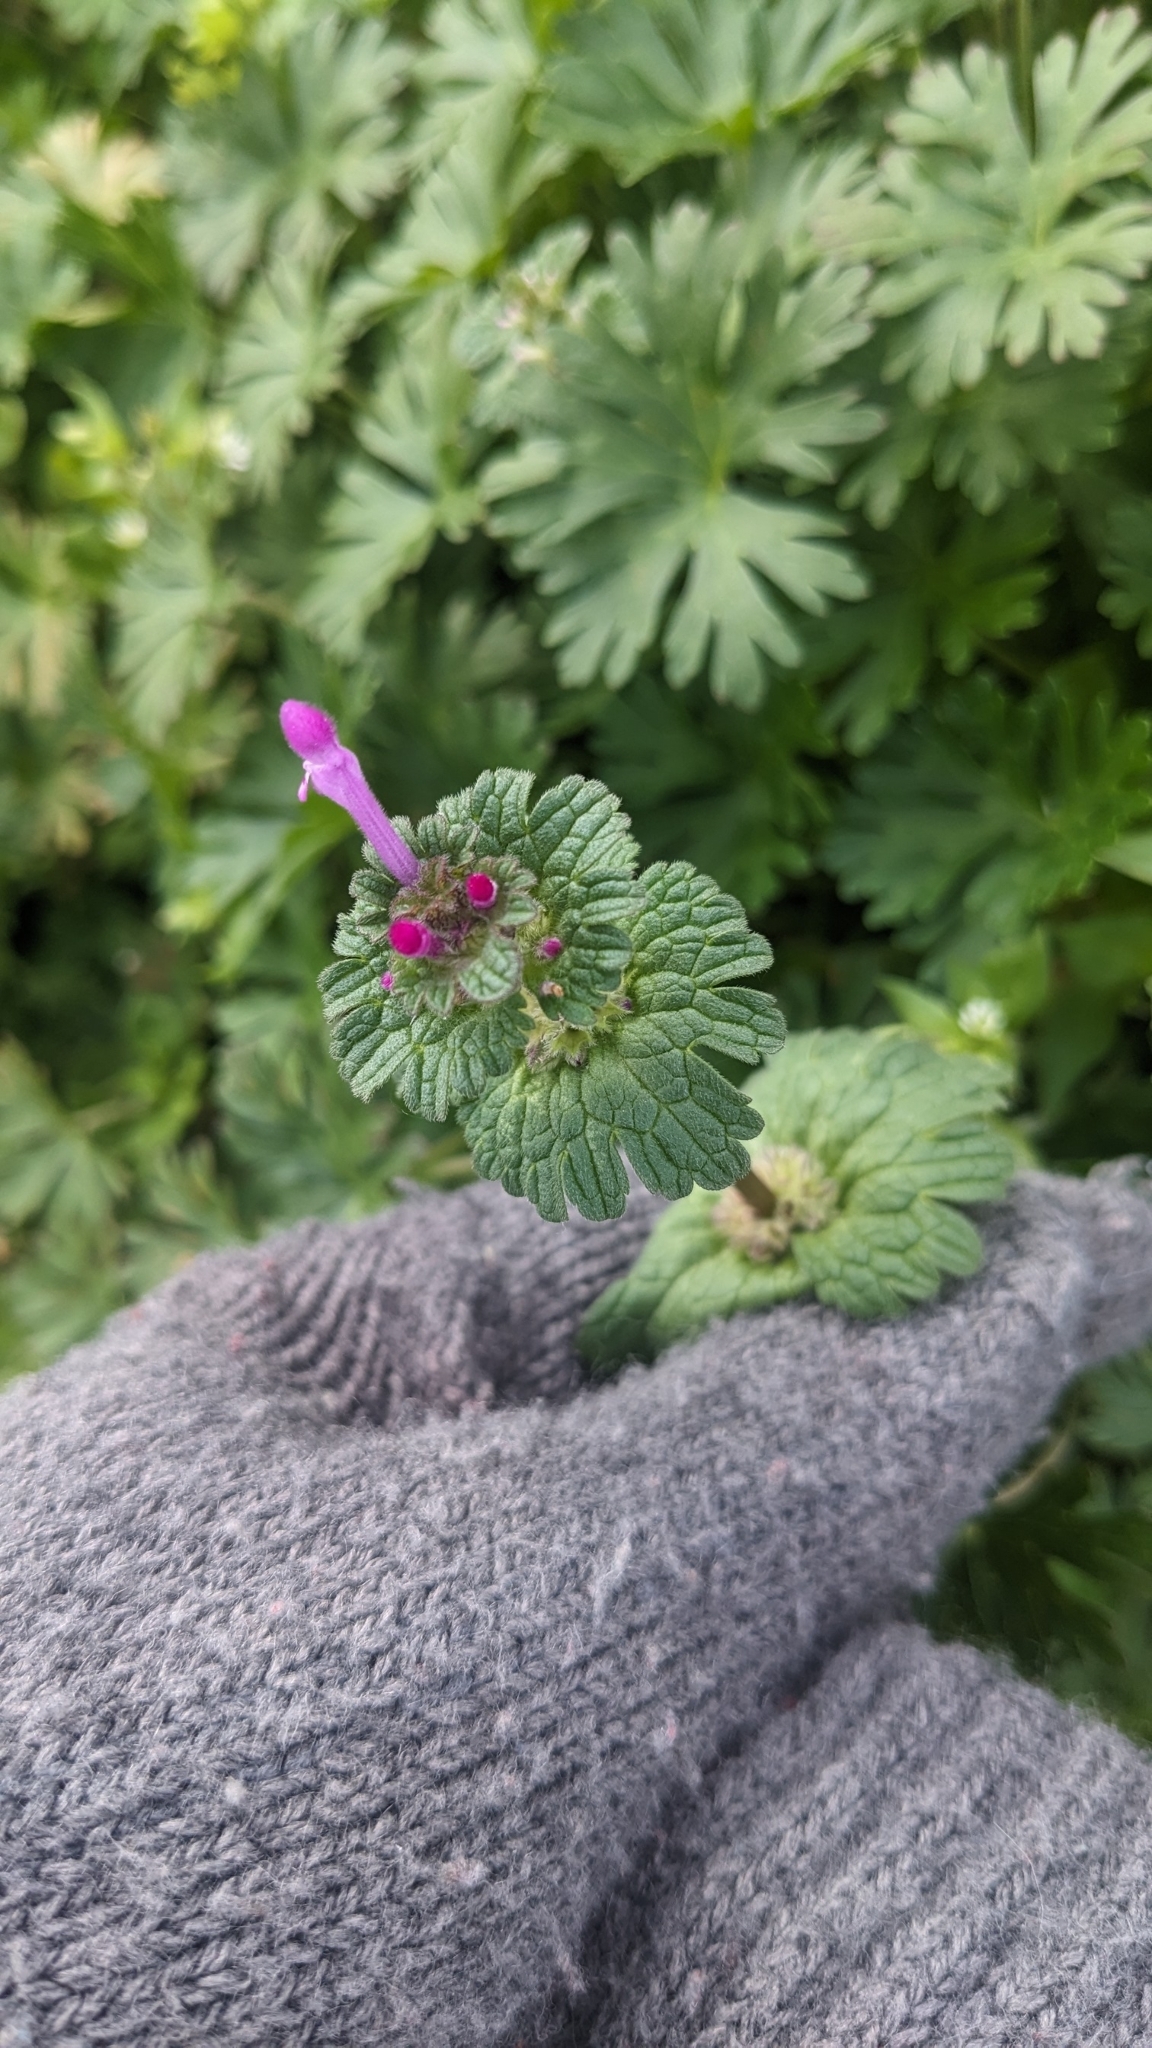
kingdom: Plantae
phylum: Tracheophyta
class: Magnoliopsida
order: Lamiales
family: Lamiaceae
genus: Lamium
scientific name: Lamium amplexicaule
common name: Henbit dead-nettle
